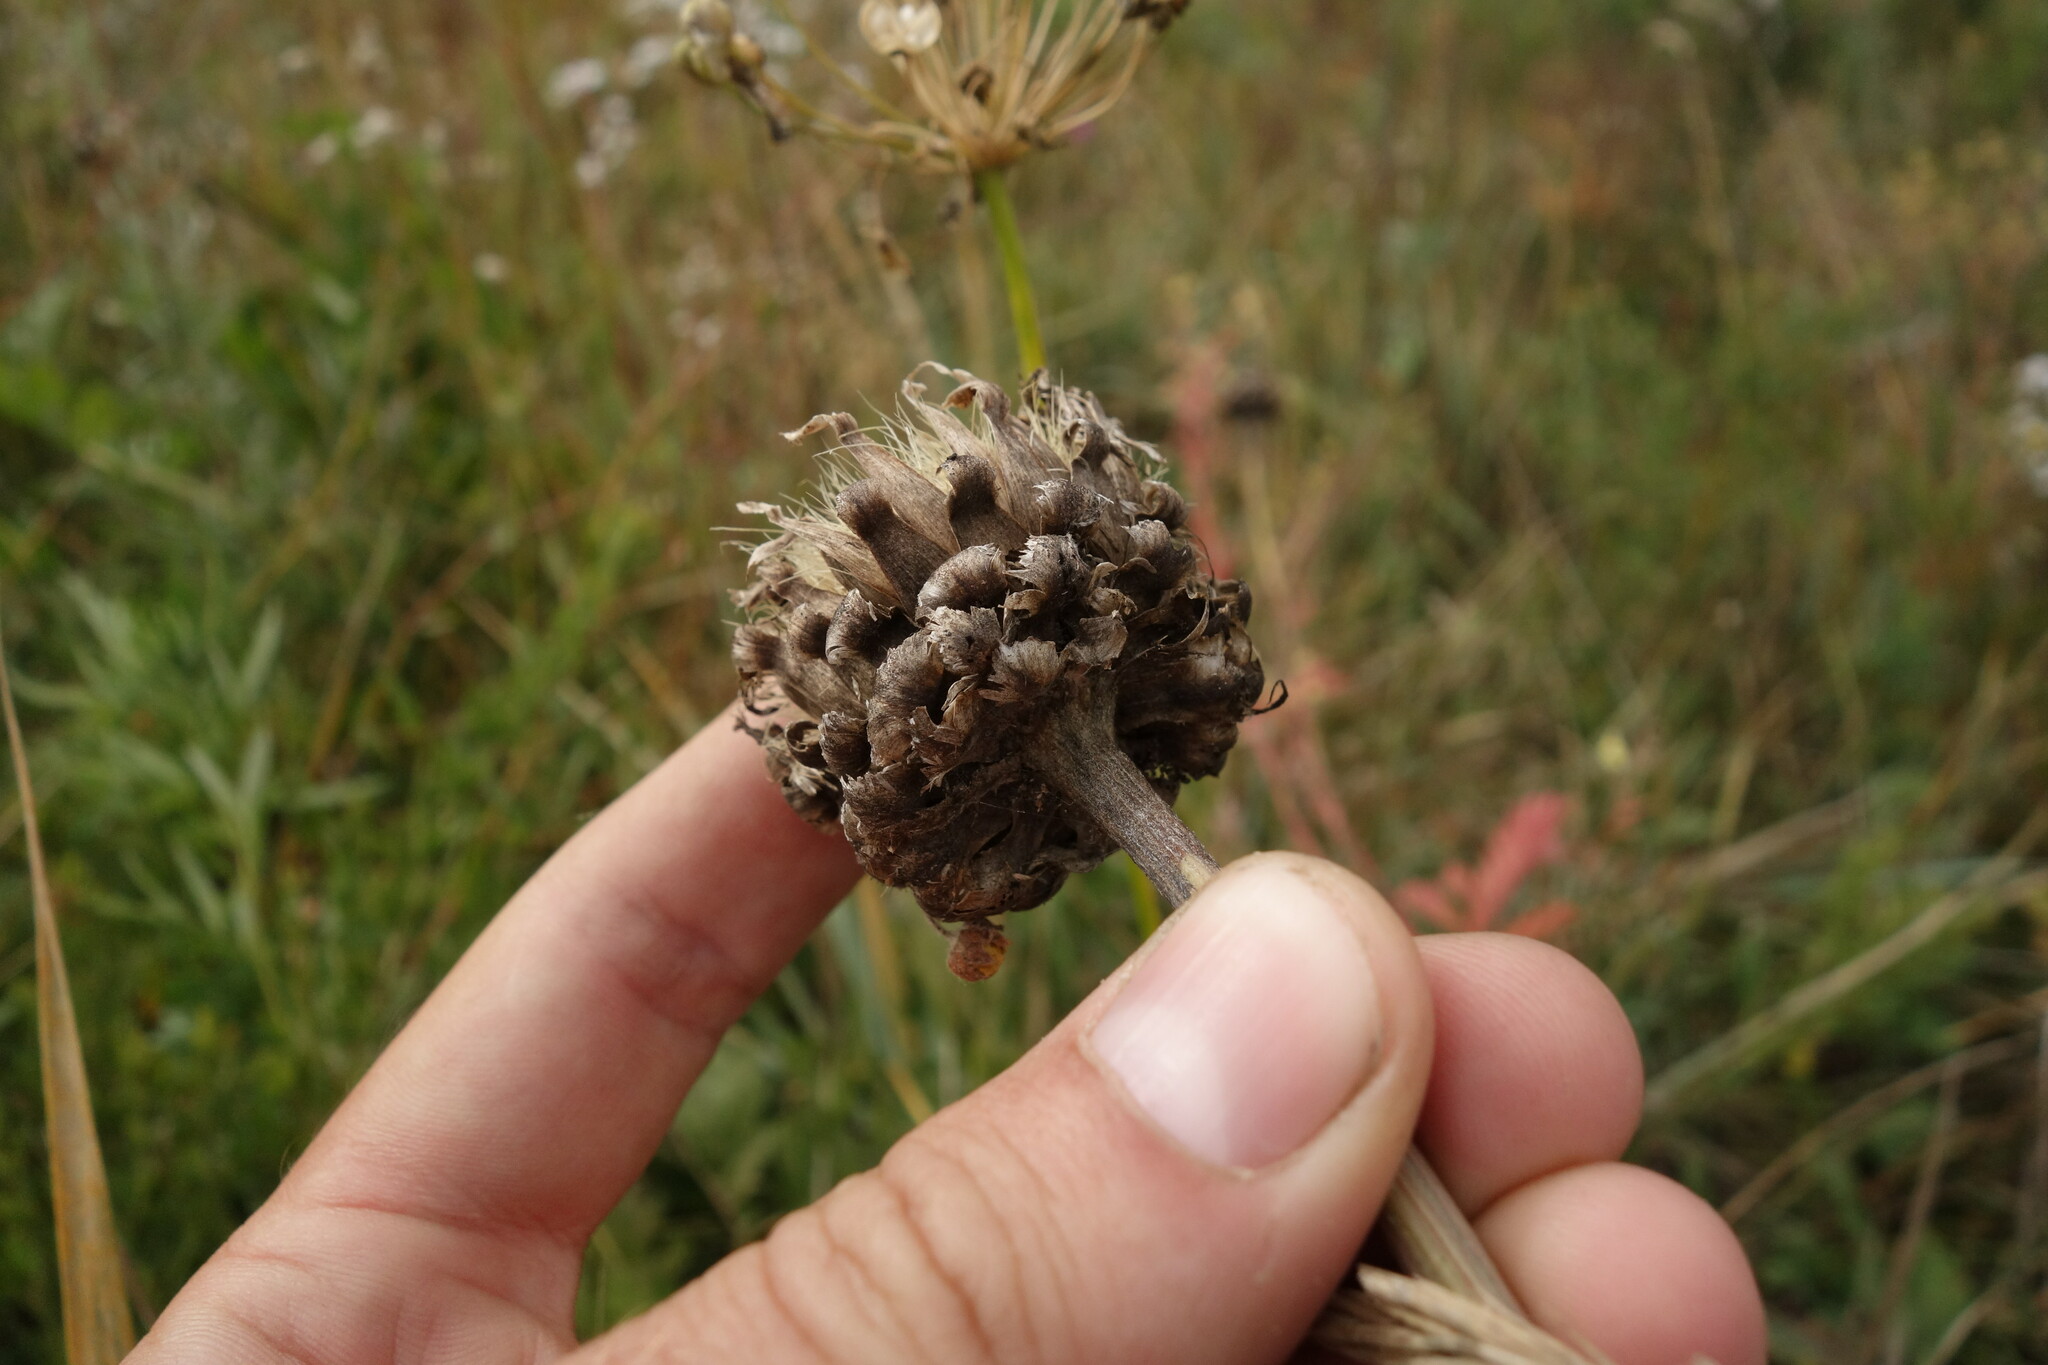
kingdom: Plantae
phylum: Tracheophyta
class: Magnoliopsida
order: Asterales
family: Asteraceae
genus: Leuzea
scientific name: Leuzea uniflora
